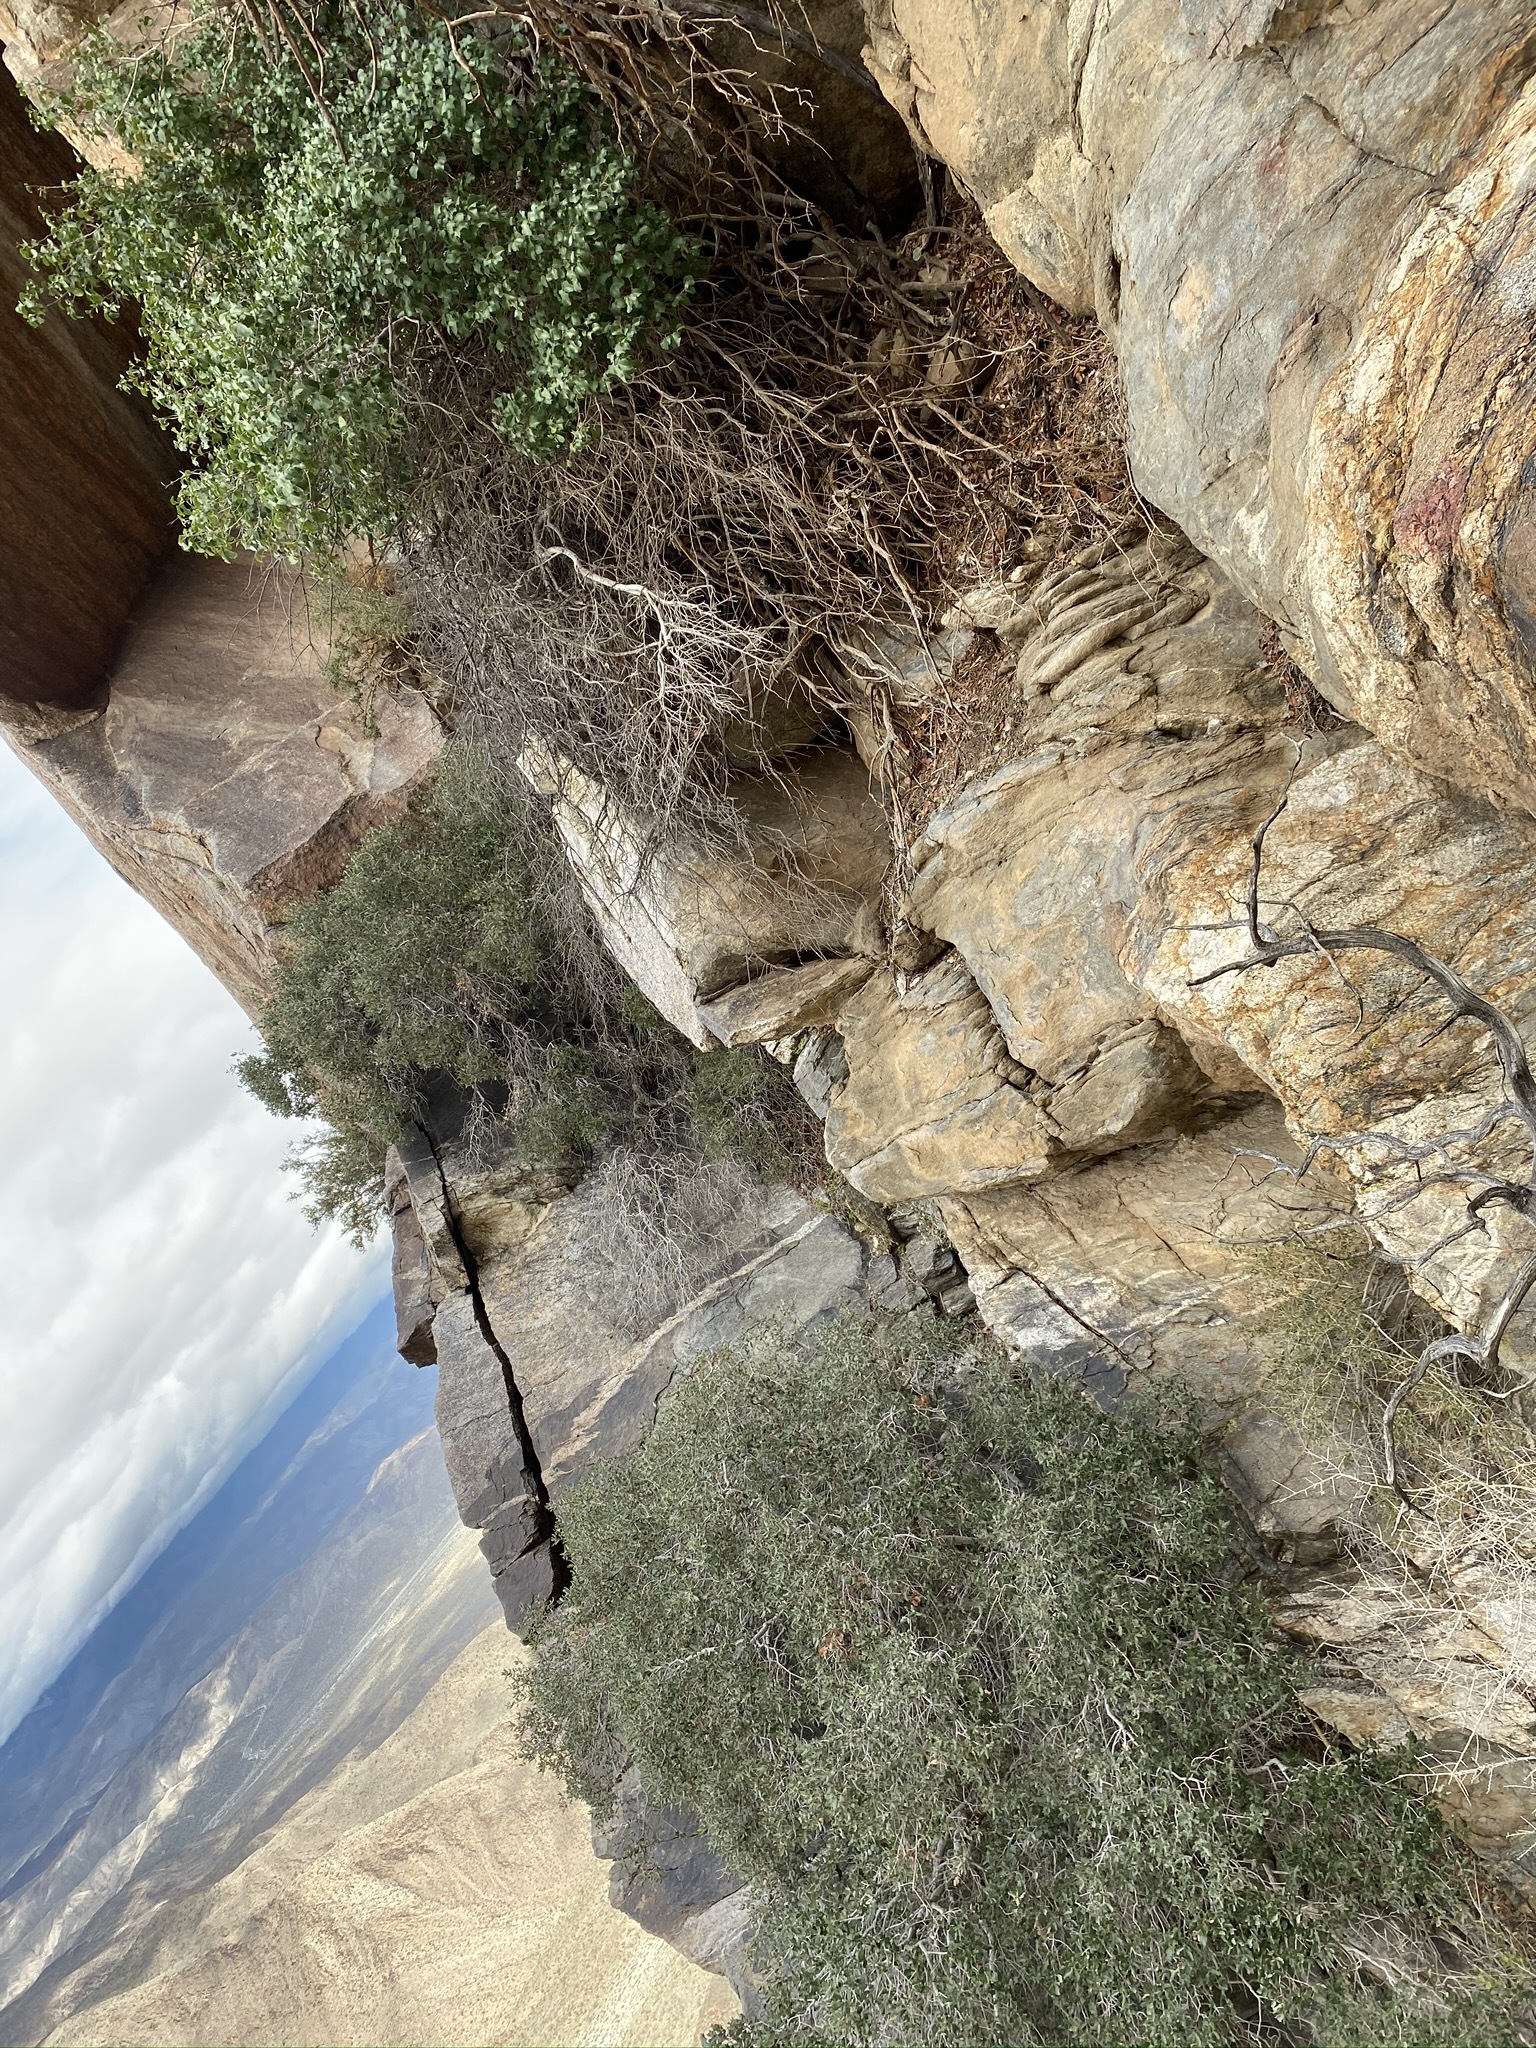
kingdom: Plantae
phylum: Tracheophyta
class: Magnoliopsida
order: Rosales
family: Rosaceae
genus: Prunus
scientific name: Prunus ilicifolia
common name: Hollyleaf cherry
